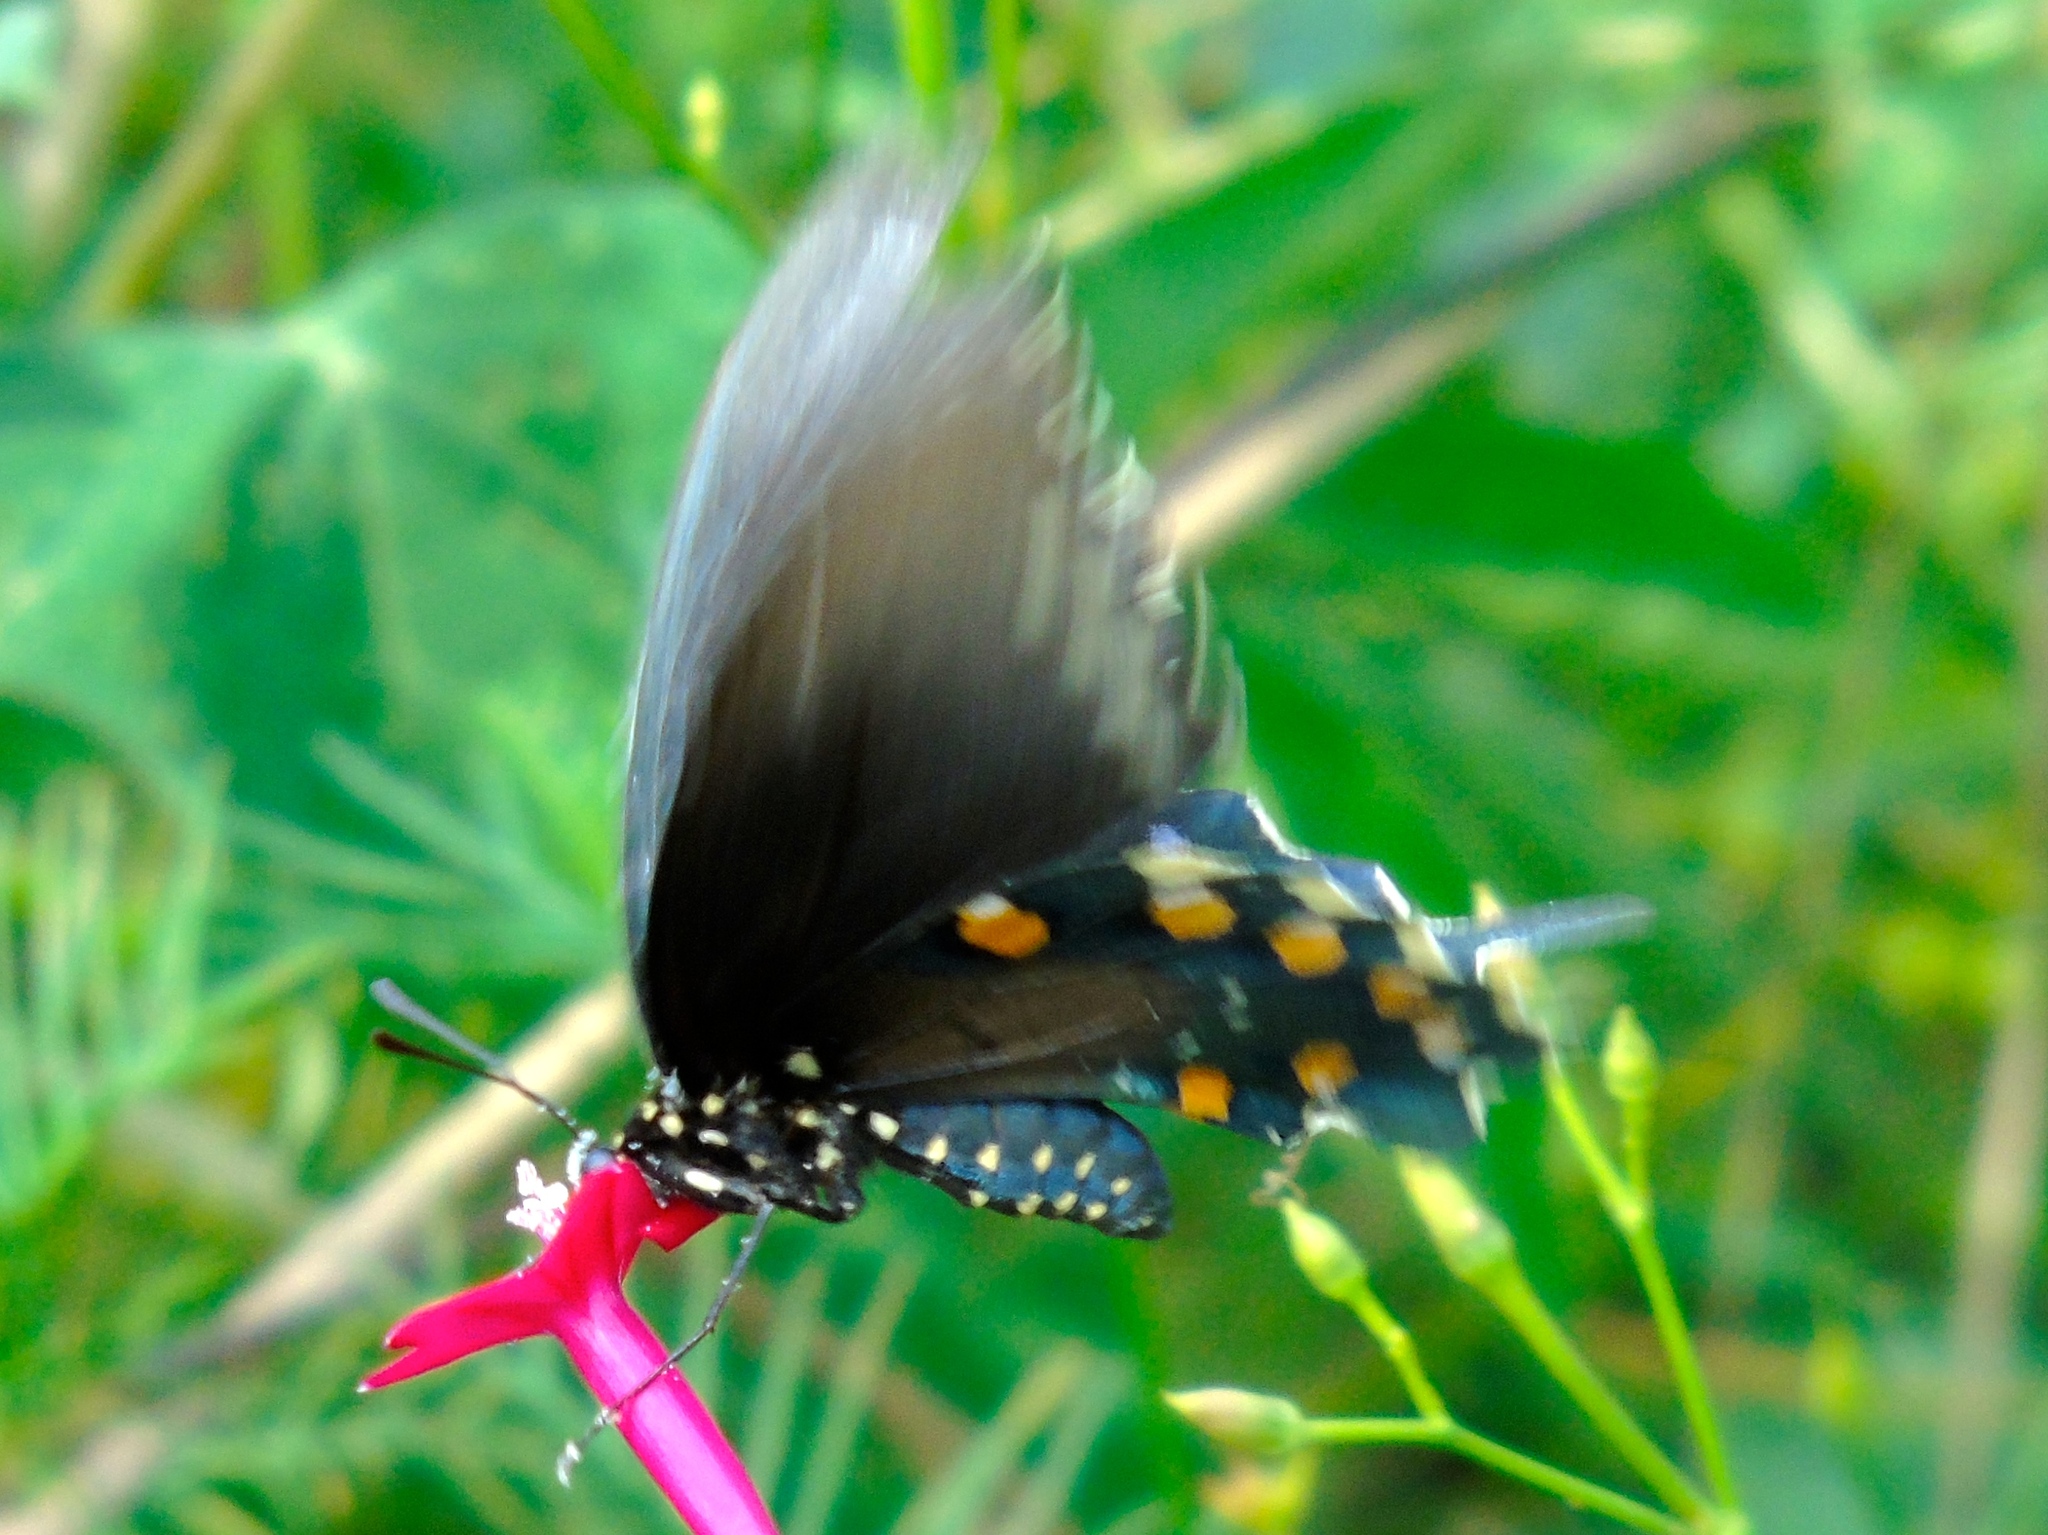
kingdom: Animalia
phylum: Arthropoda
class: Insecta
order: Lepidoptera
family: Papilionidae
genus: Battus
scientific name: Battus philenor
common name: Pipevine swallowtail
